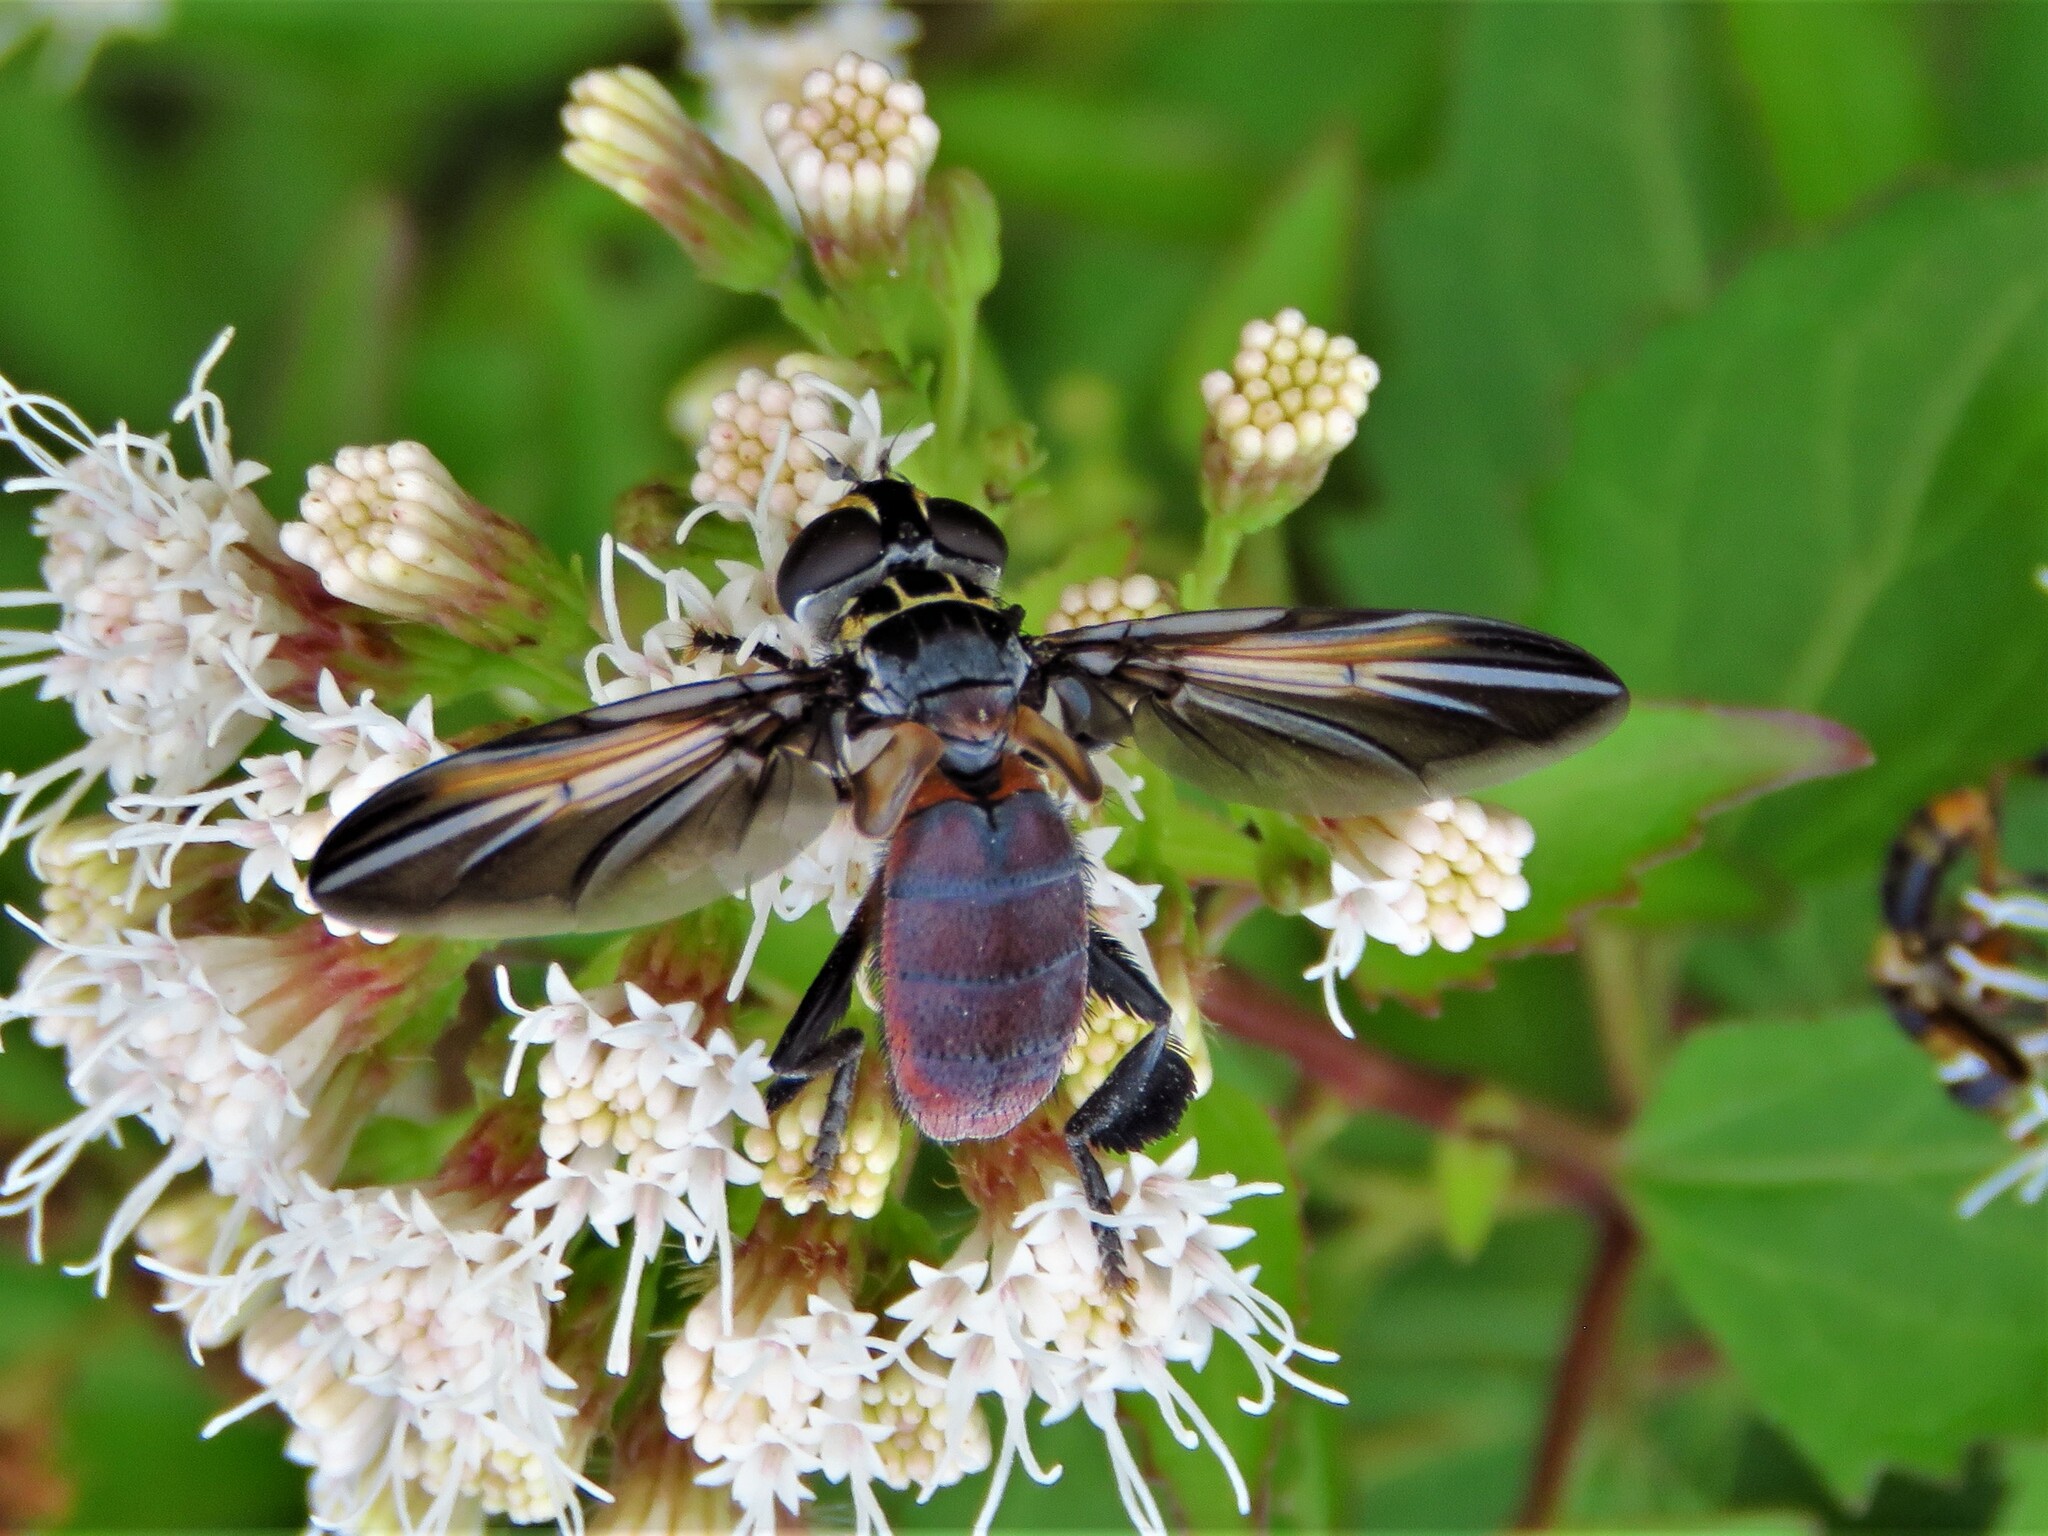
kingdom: Animalia
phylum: Arthropoda
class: Insecta
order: Diptera
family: Tachinidae
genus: Trichopoda
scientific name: Trichopoda lanipes
